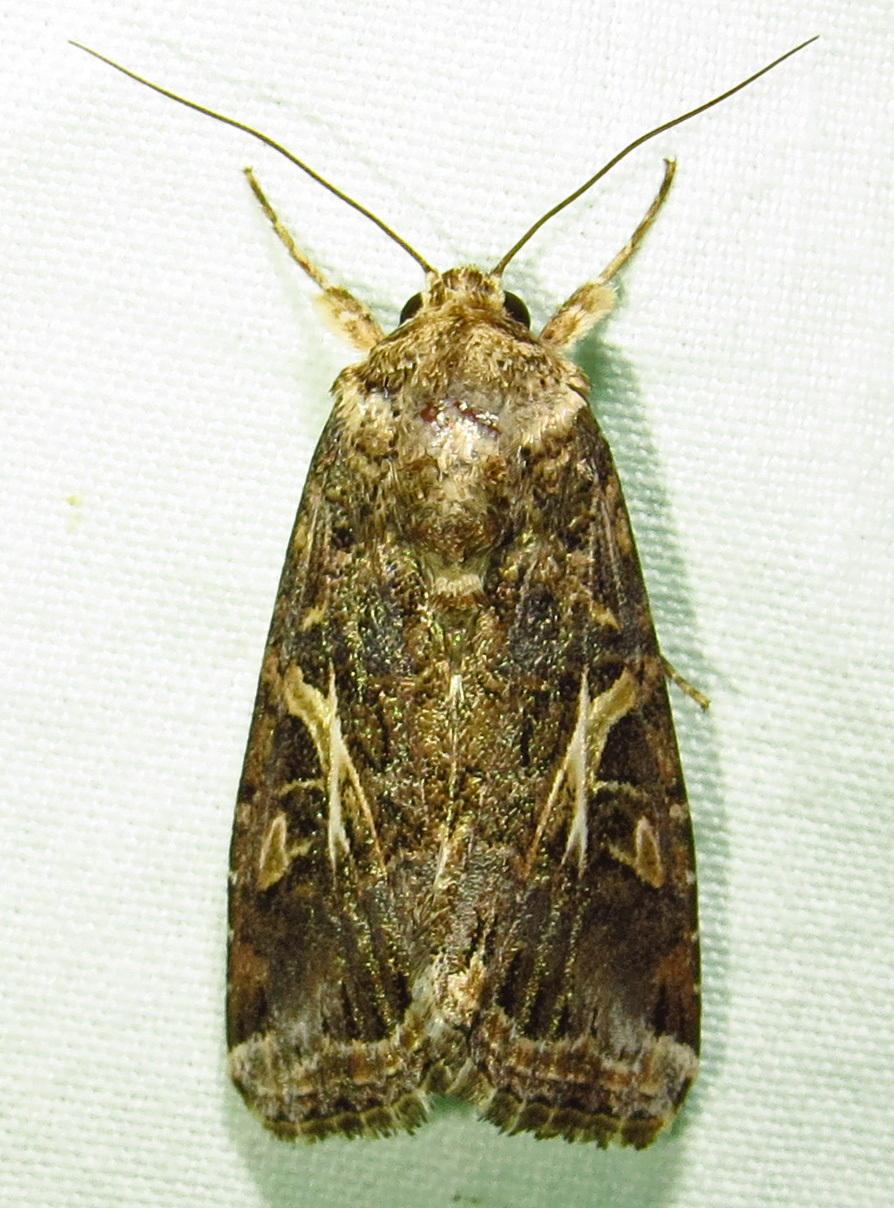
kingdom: Animalia
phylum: Arthropoda
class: Insecta
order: Lepidoptera
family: Noctuidae
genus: Spodoptera
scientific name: Spodoptera ornithogalli
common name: Yellow-striped armyworm
